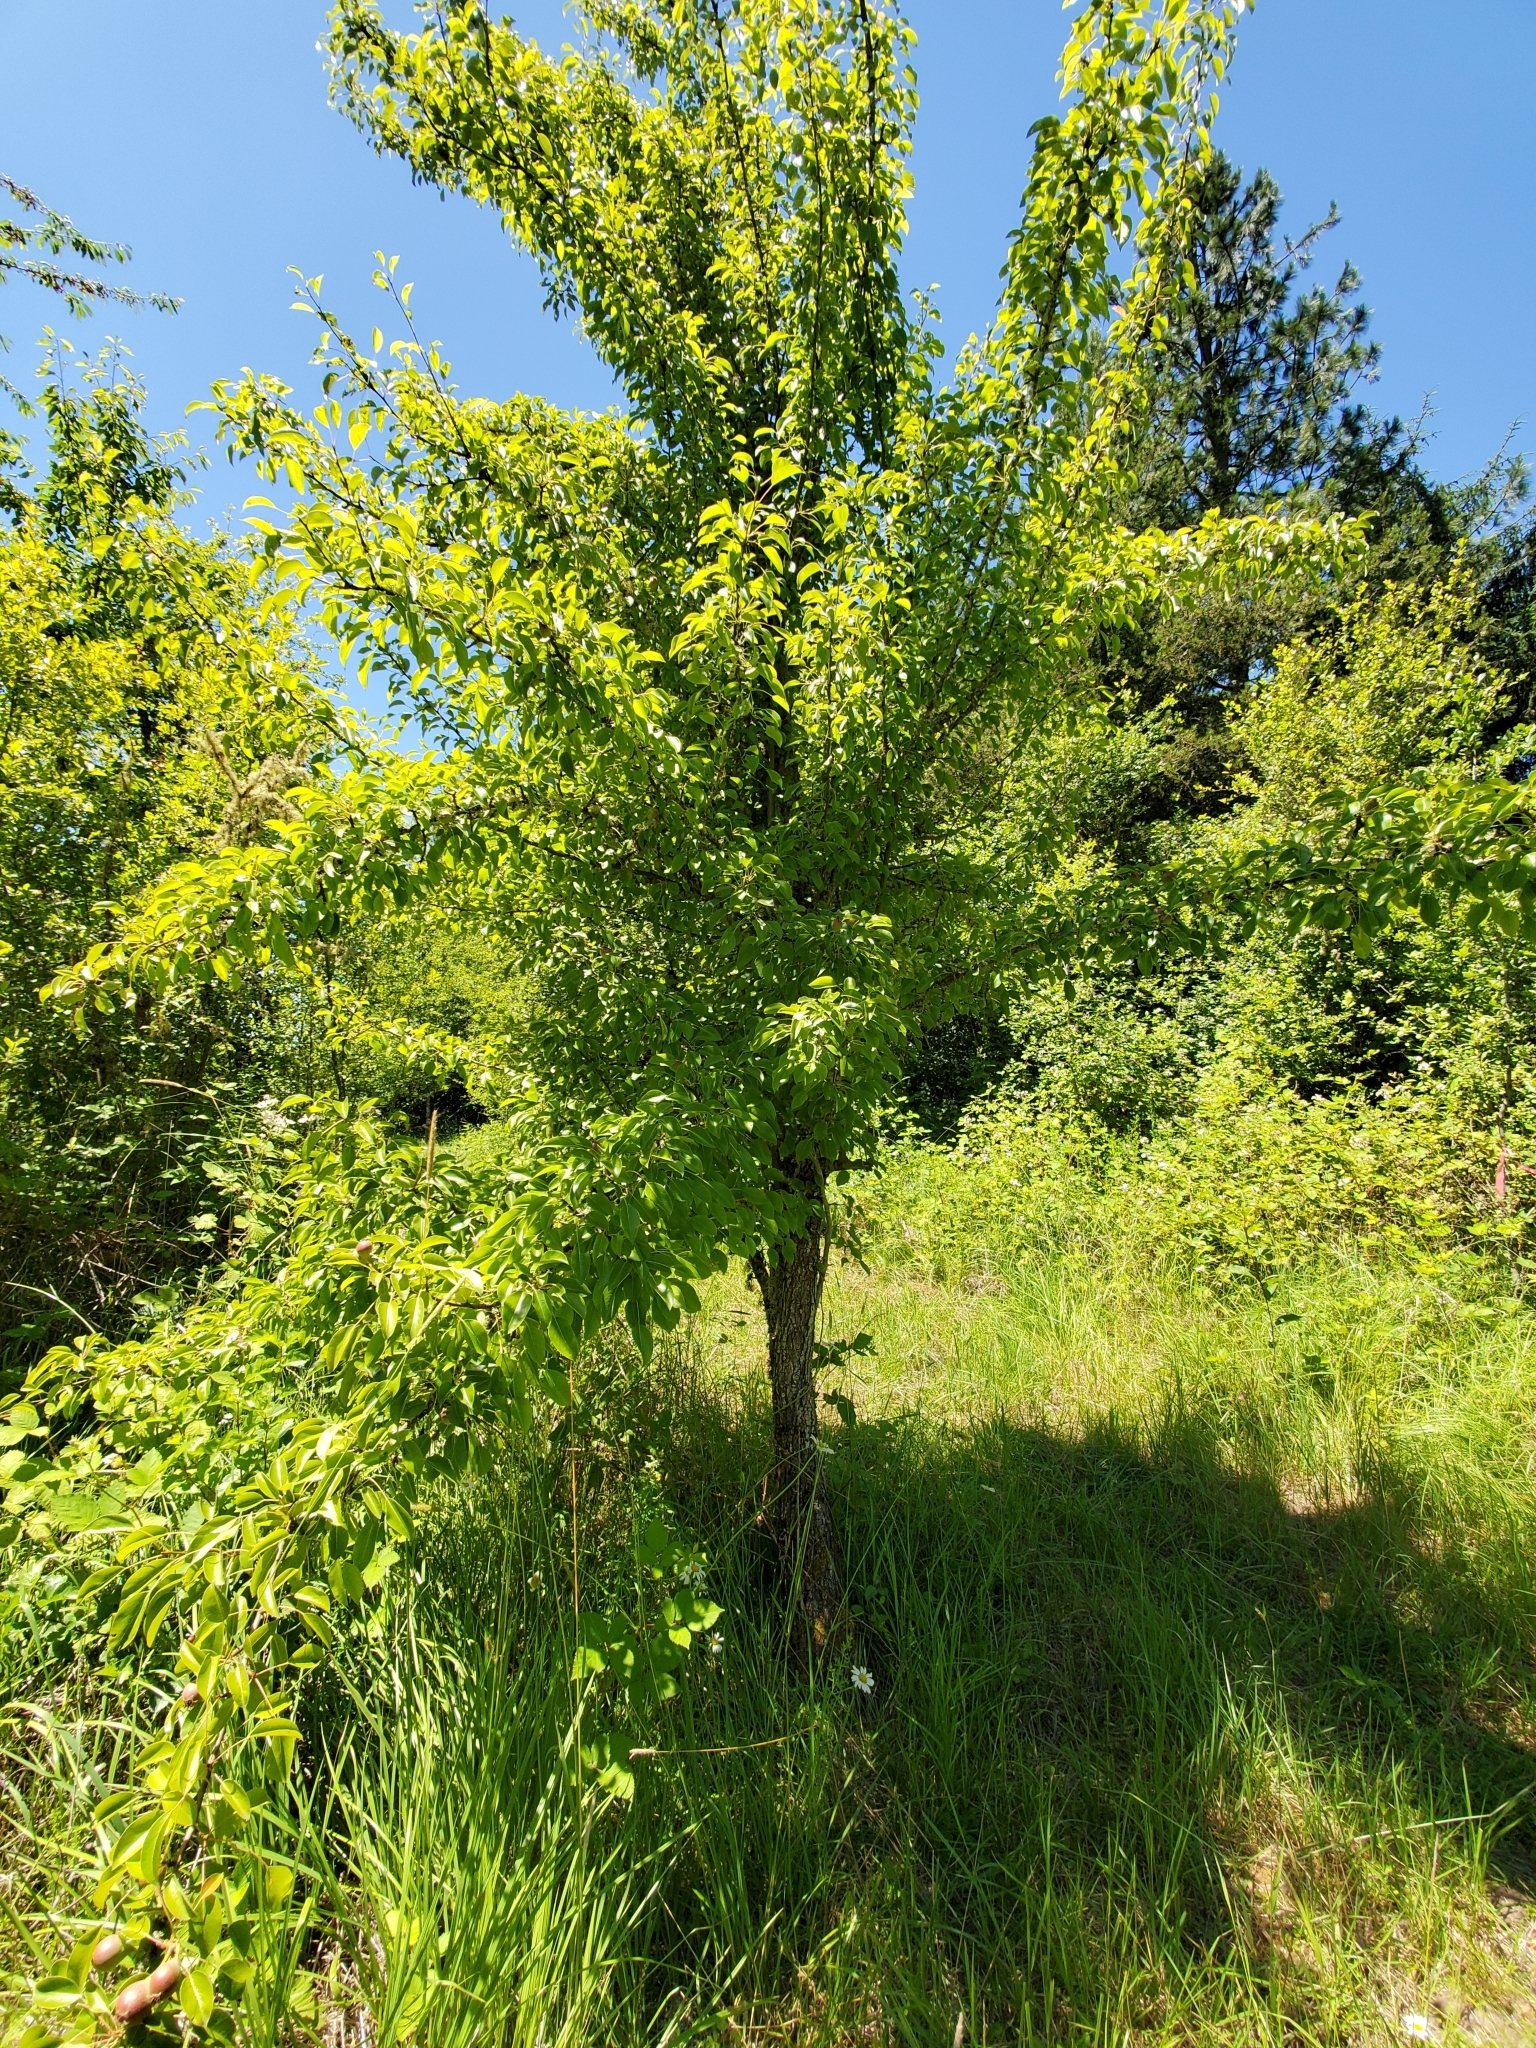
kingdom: Plantae
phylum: Tracheophyta
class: Magnoliopsida
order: Rosales
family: Rosaceae
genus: Pyrus
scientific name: Pyrus communis
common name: Pear
